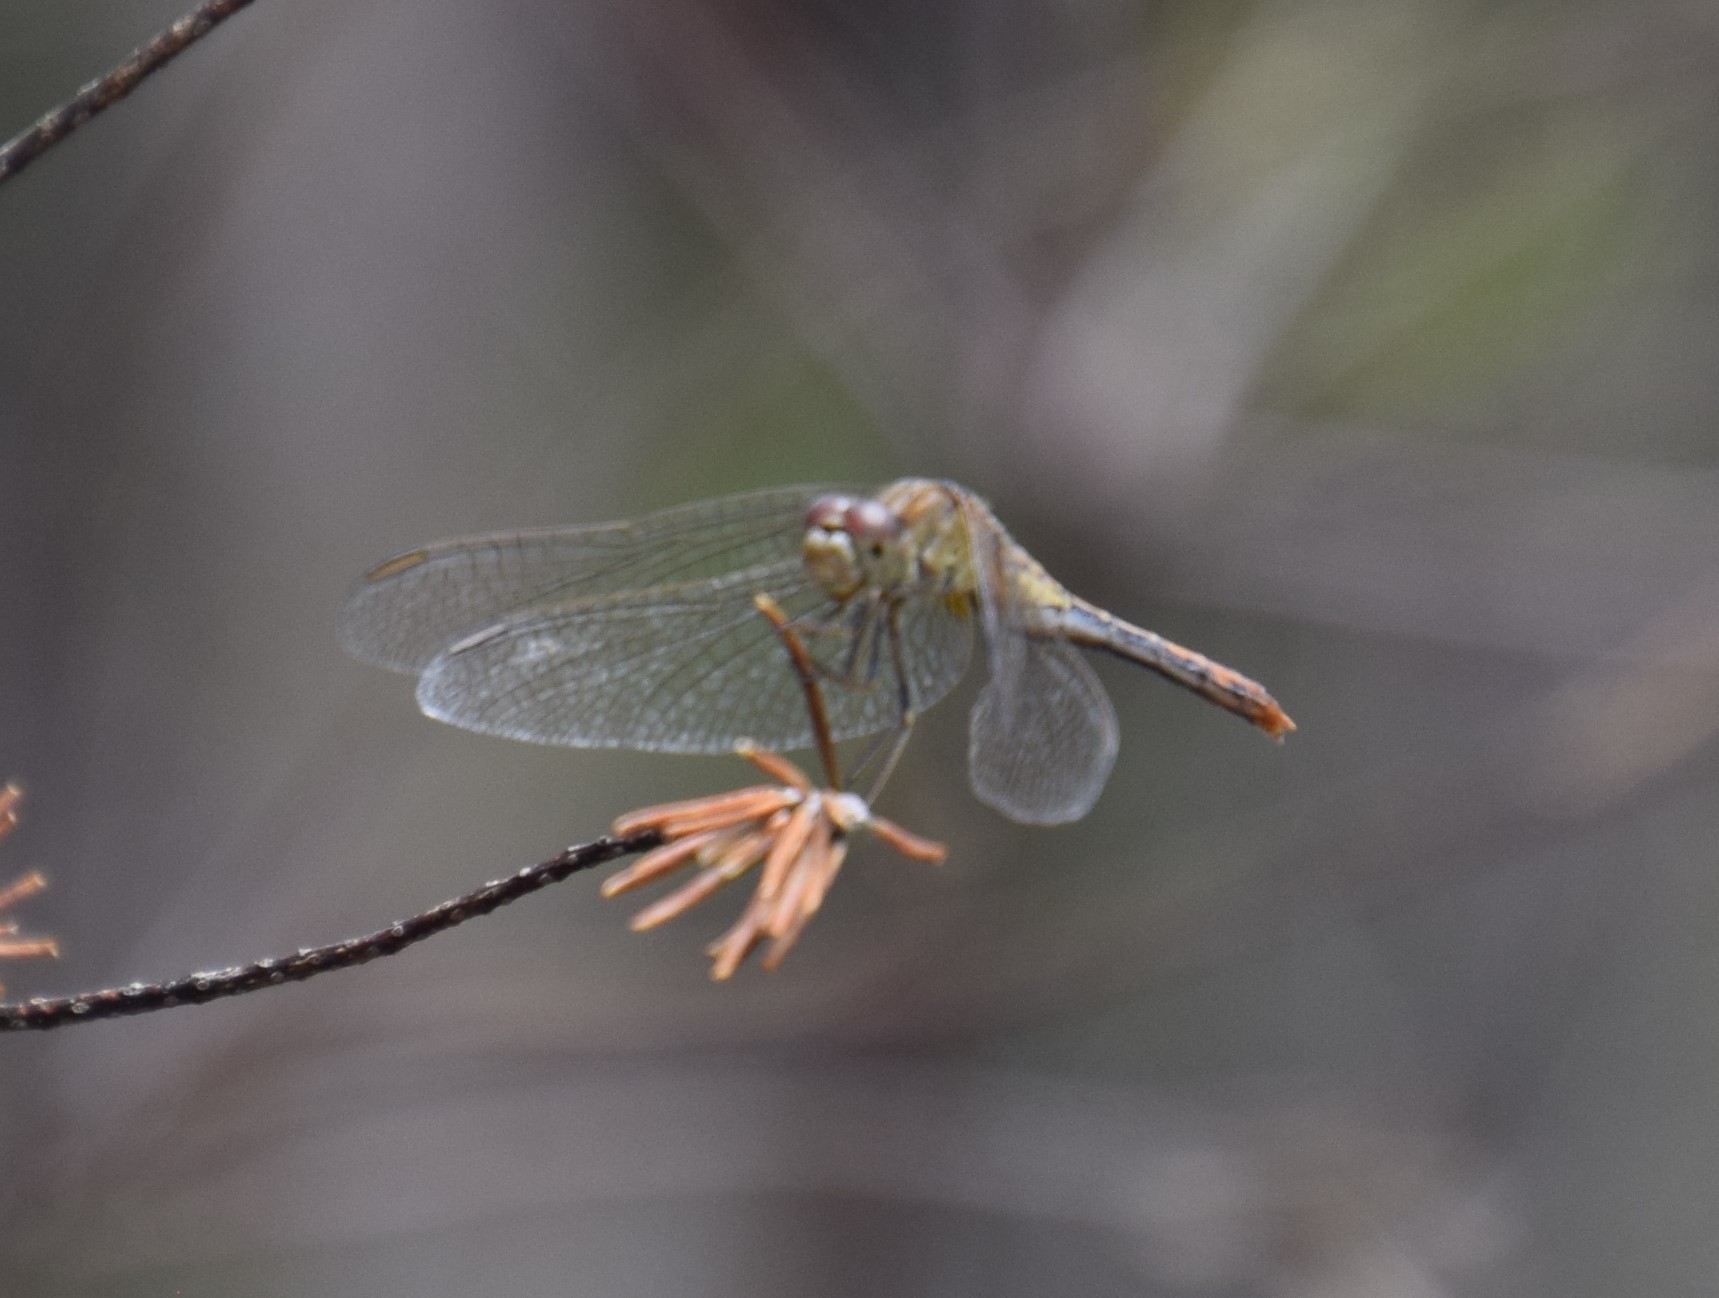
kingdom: Animalia
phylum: Arthropoda
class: Insecta
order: Odonata
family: Libellulidae
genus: Diplacodes
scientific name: Diplacodes bipunctata
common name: Red percher dragonfly
